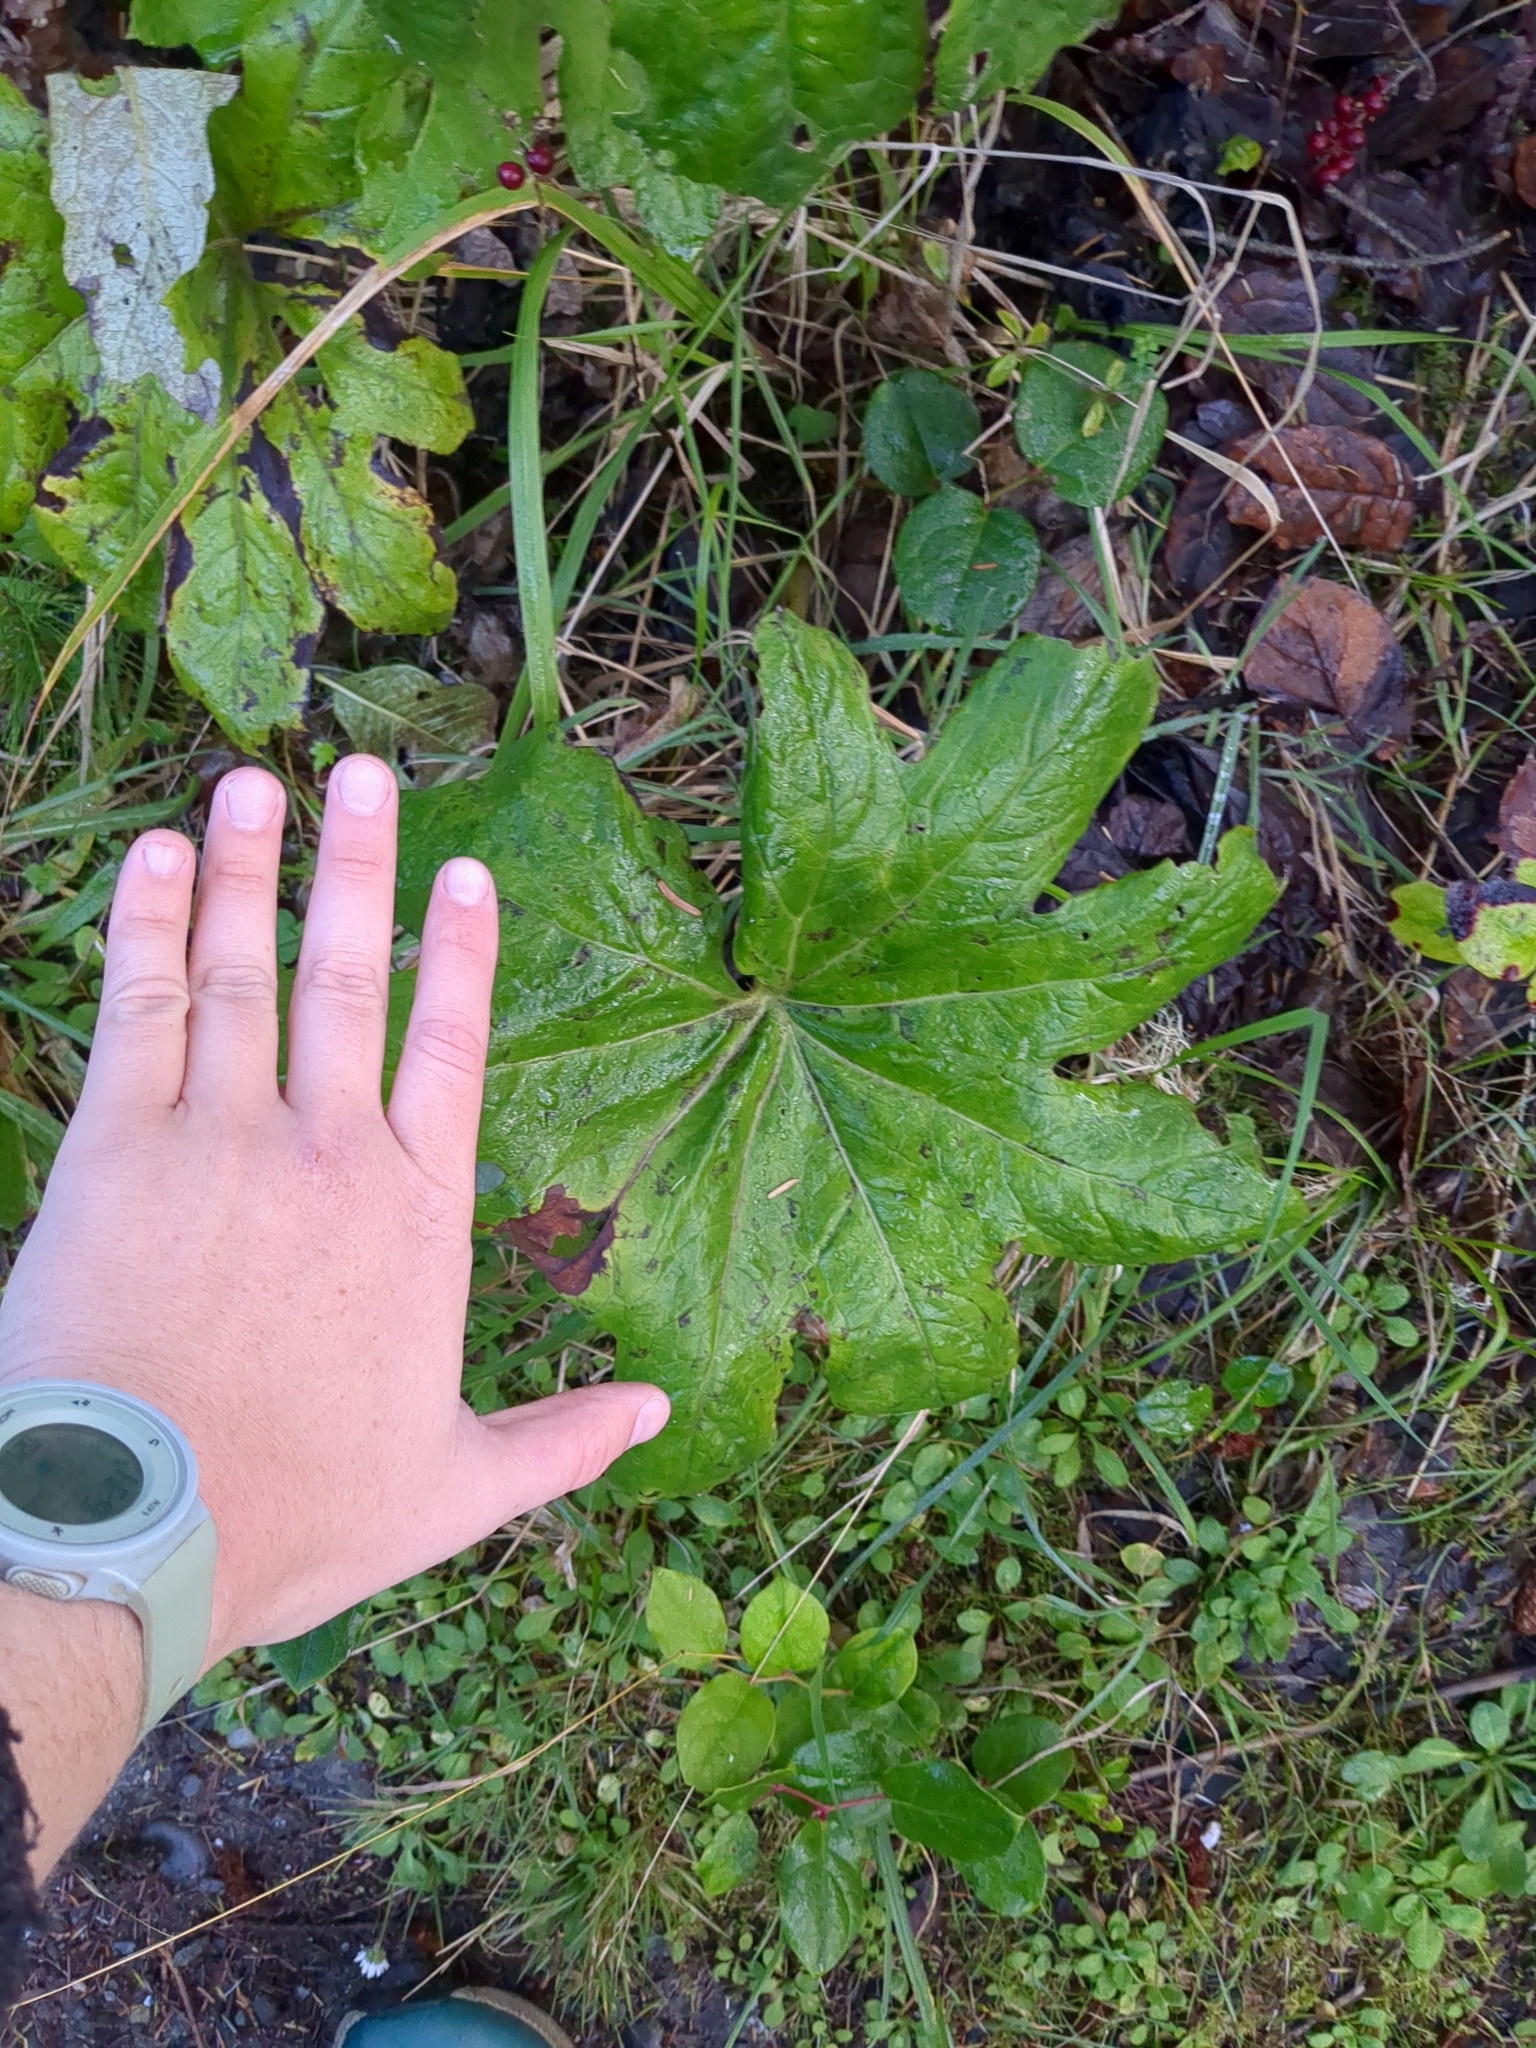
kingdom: Plantae
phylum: Tracheophyta
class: Magnoliopsida
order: Asterales
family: Asteraceae
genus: Petasites
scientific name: Petasites frigidus
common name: Arctic butterbur
